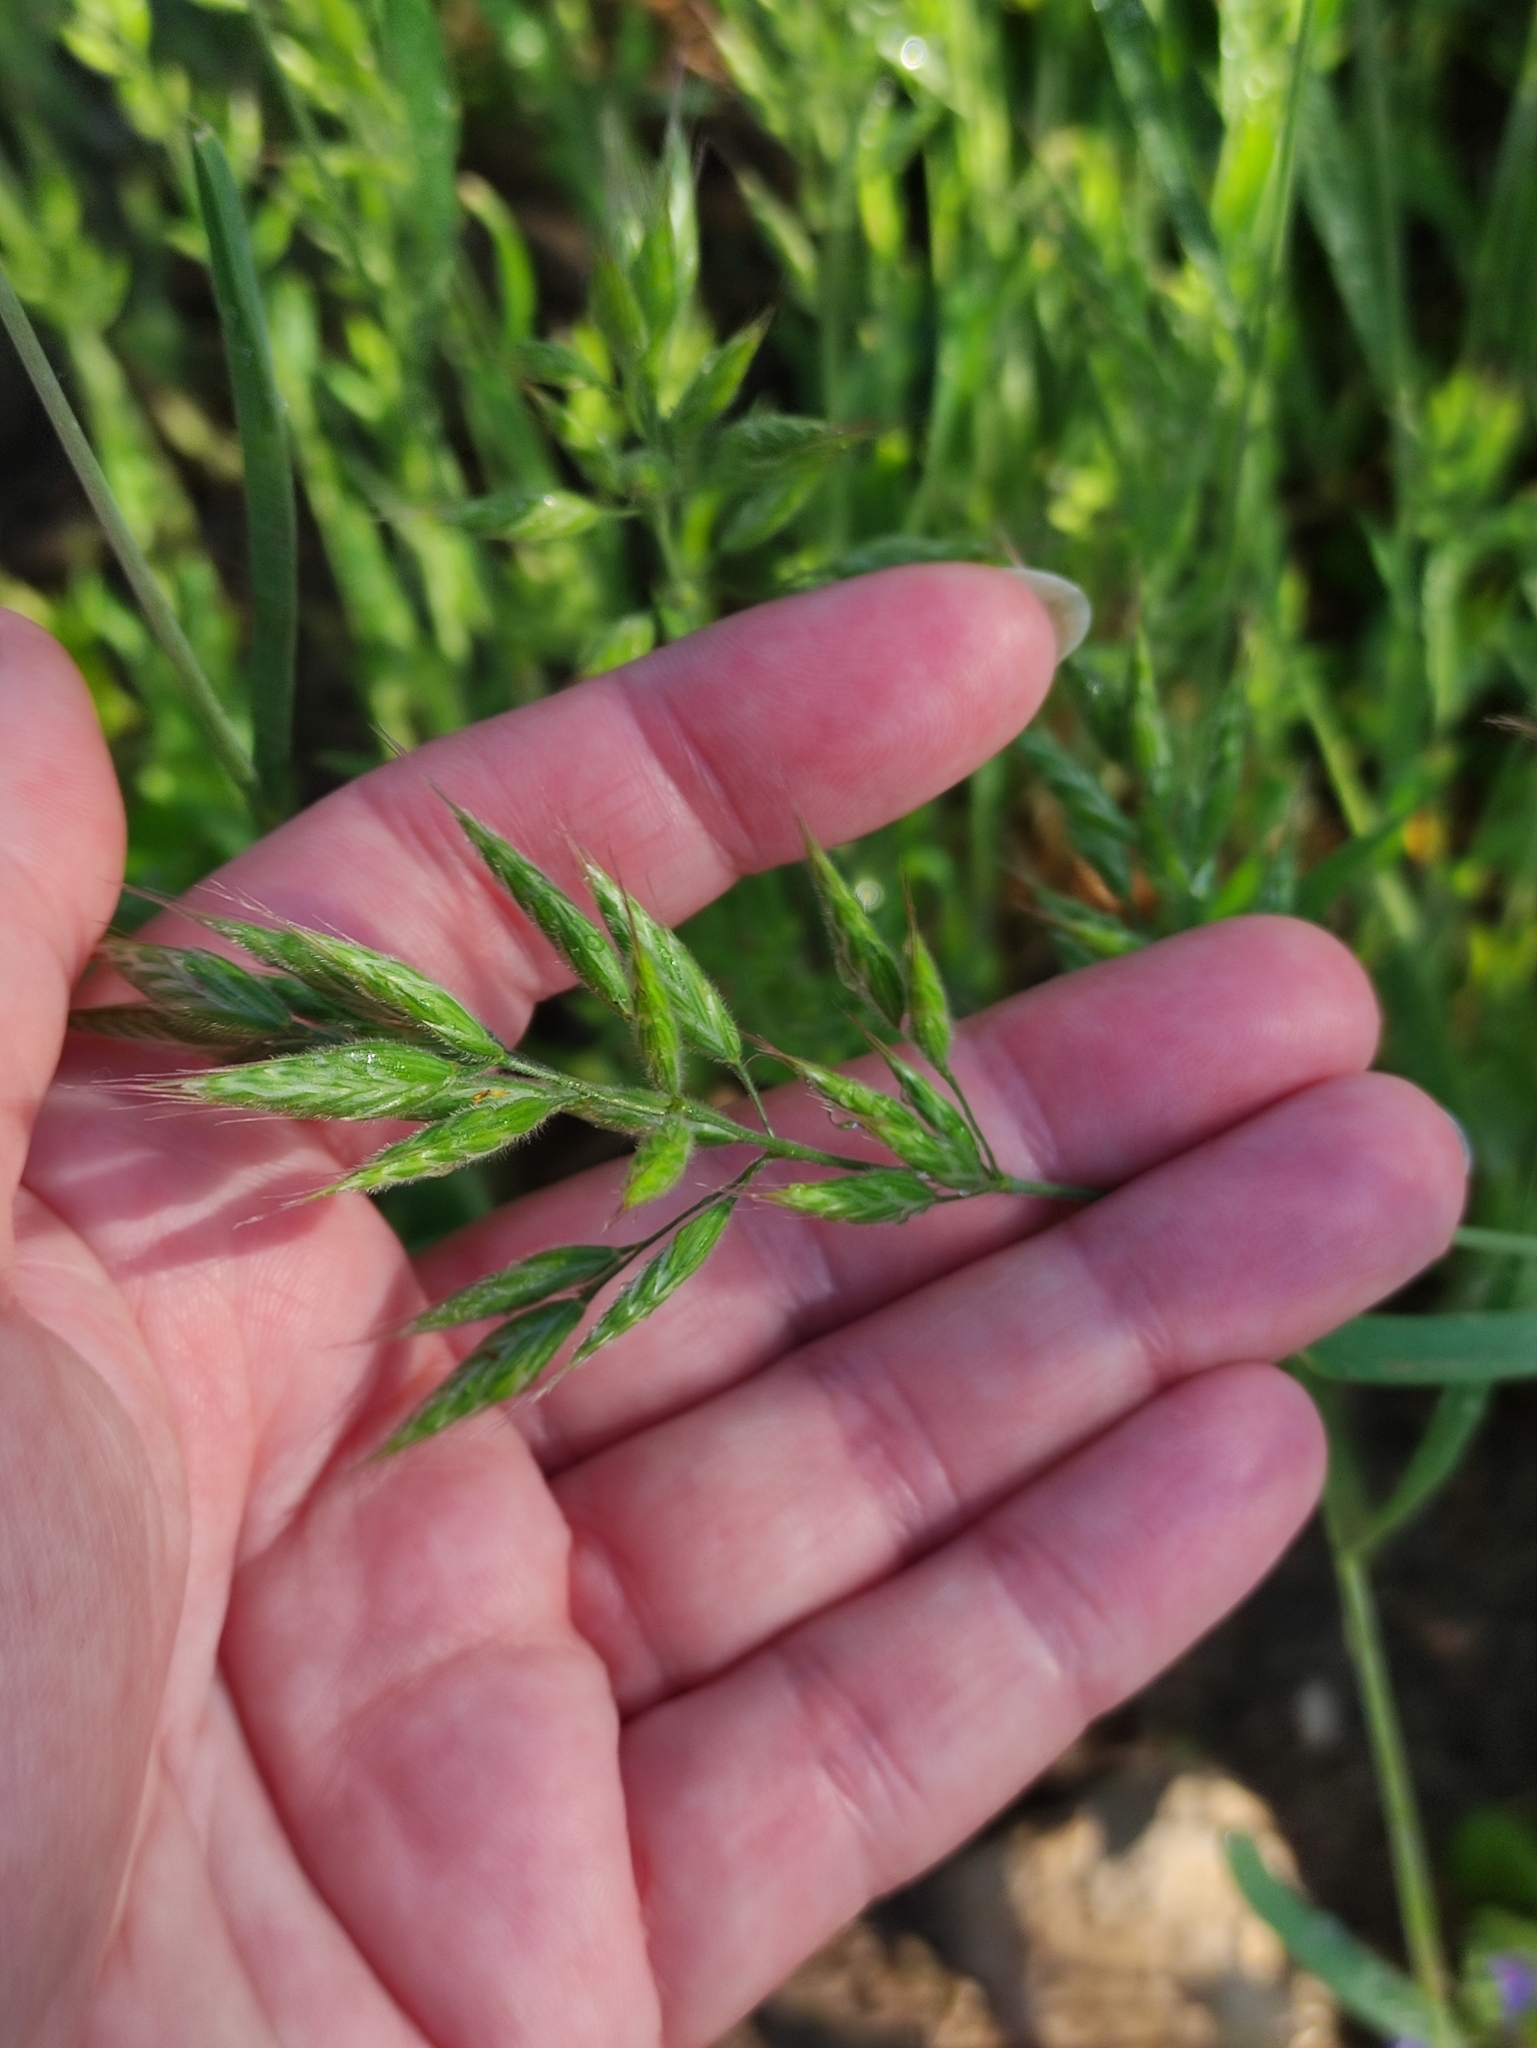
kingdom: Plantae
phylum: Tracheophyta
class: Liliopsida
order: Poales
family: Poaceae
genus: Bromus
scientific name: Bromus hordeaceus
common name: Soft brome
